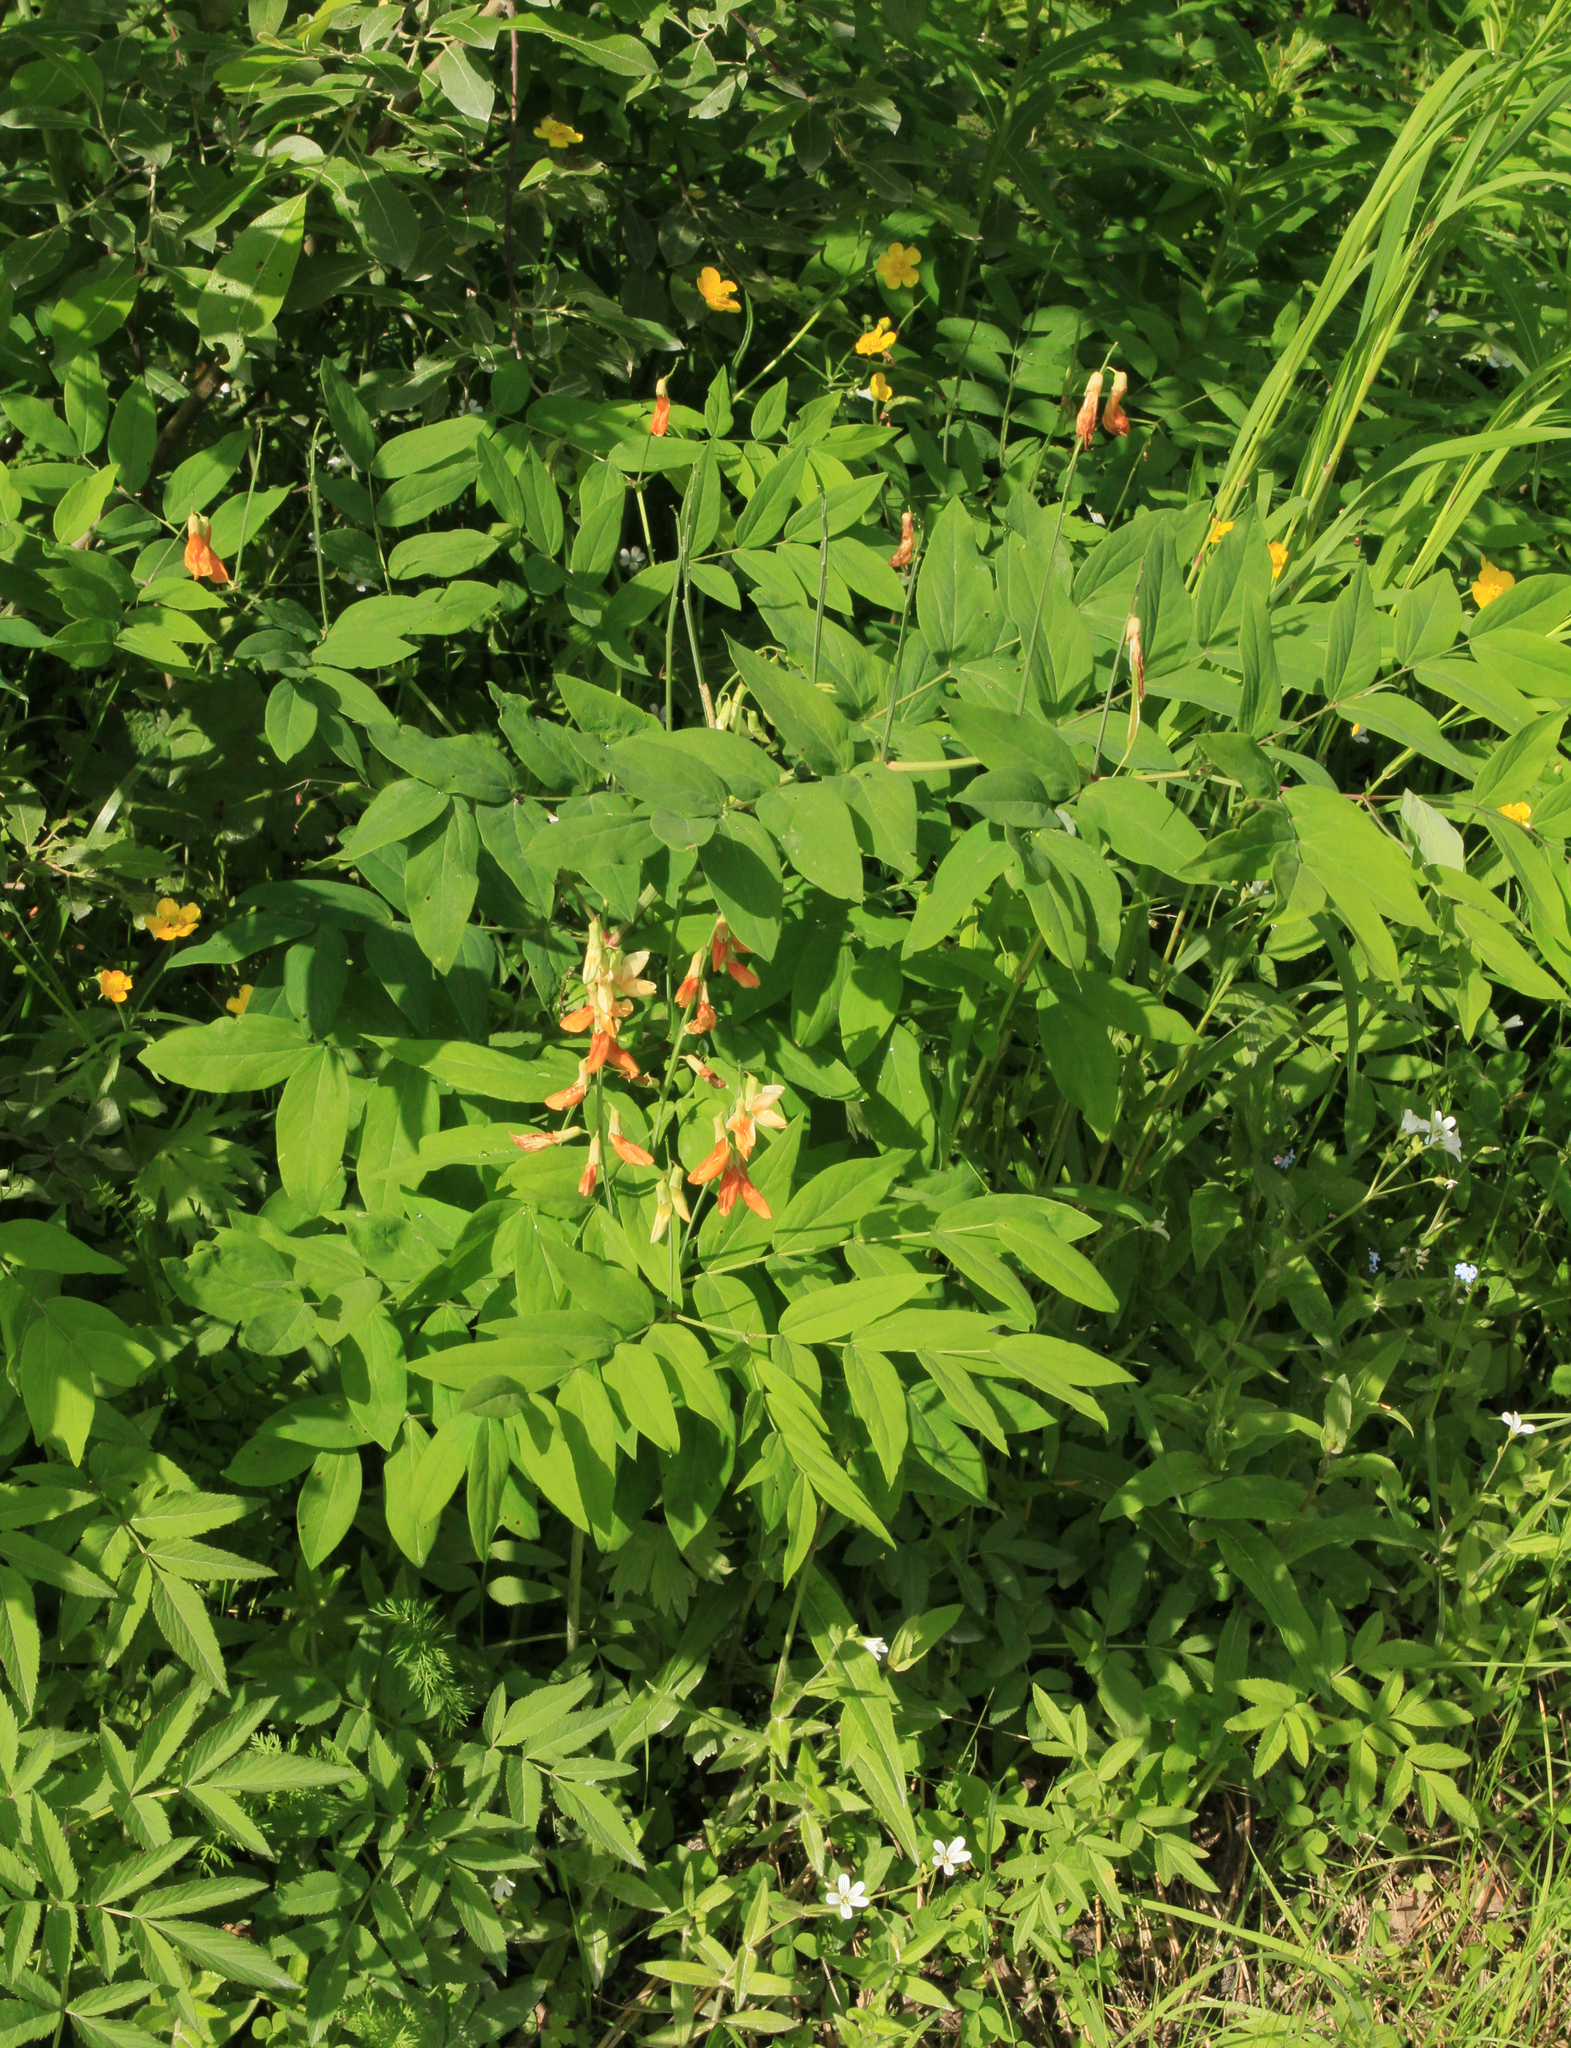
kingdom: Plantae
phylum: Tracheophyta
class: Magnoliopsida
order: Fabales
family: Fabaceae
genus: Lathyrus
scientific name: Lathyrus gmelinii
